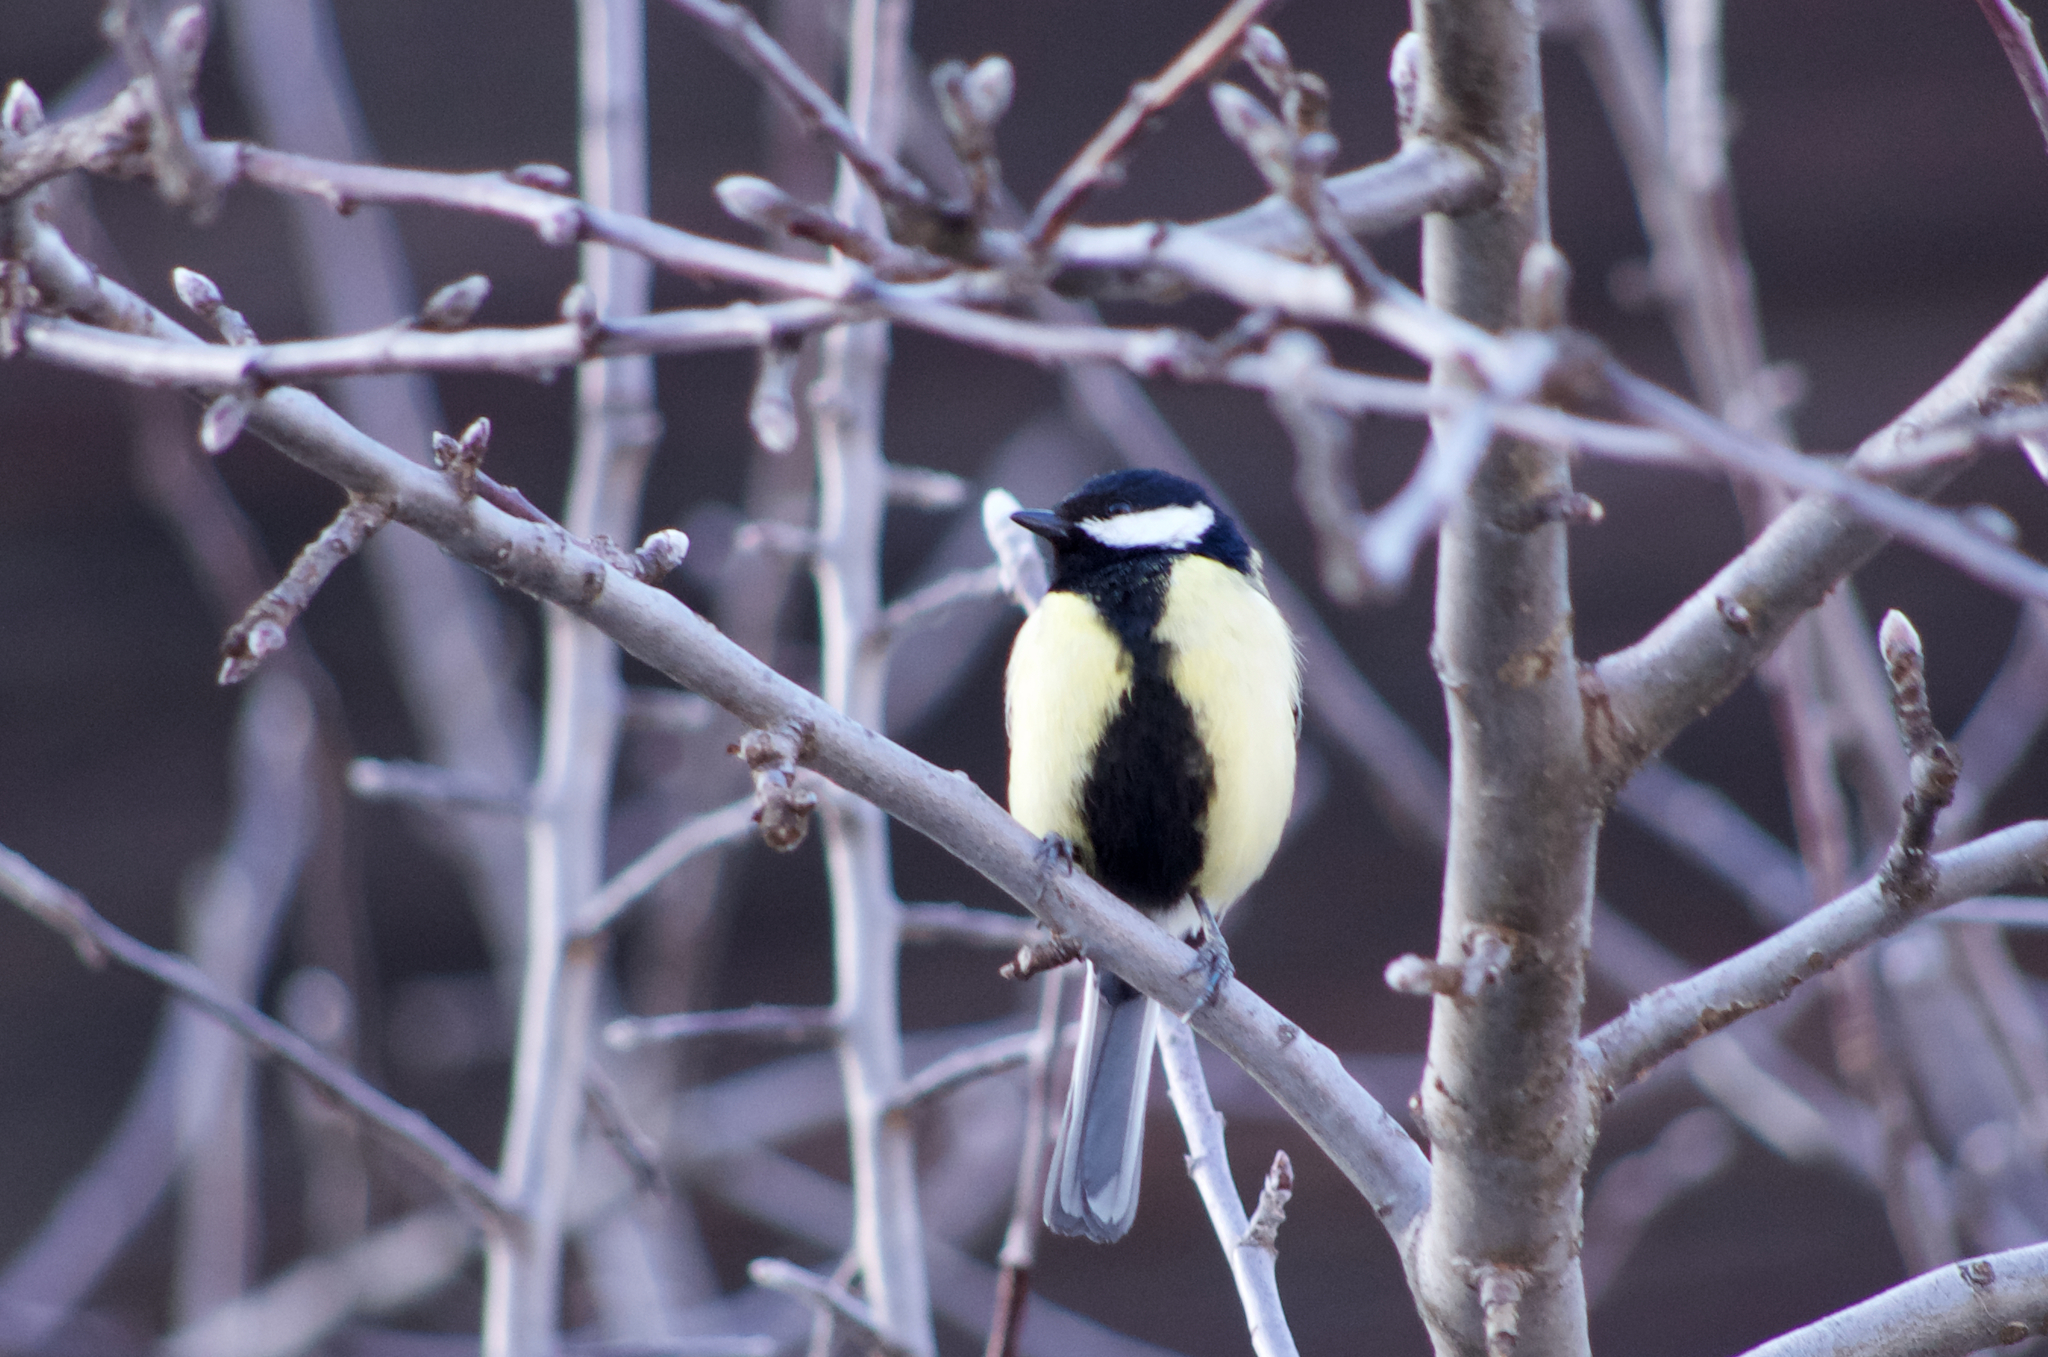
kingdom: Animalia
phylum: Chordata
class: Aves
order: Passeriformes
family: Paridae
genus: Parus
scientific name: Parus major
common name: Great tit
